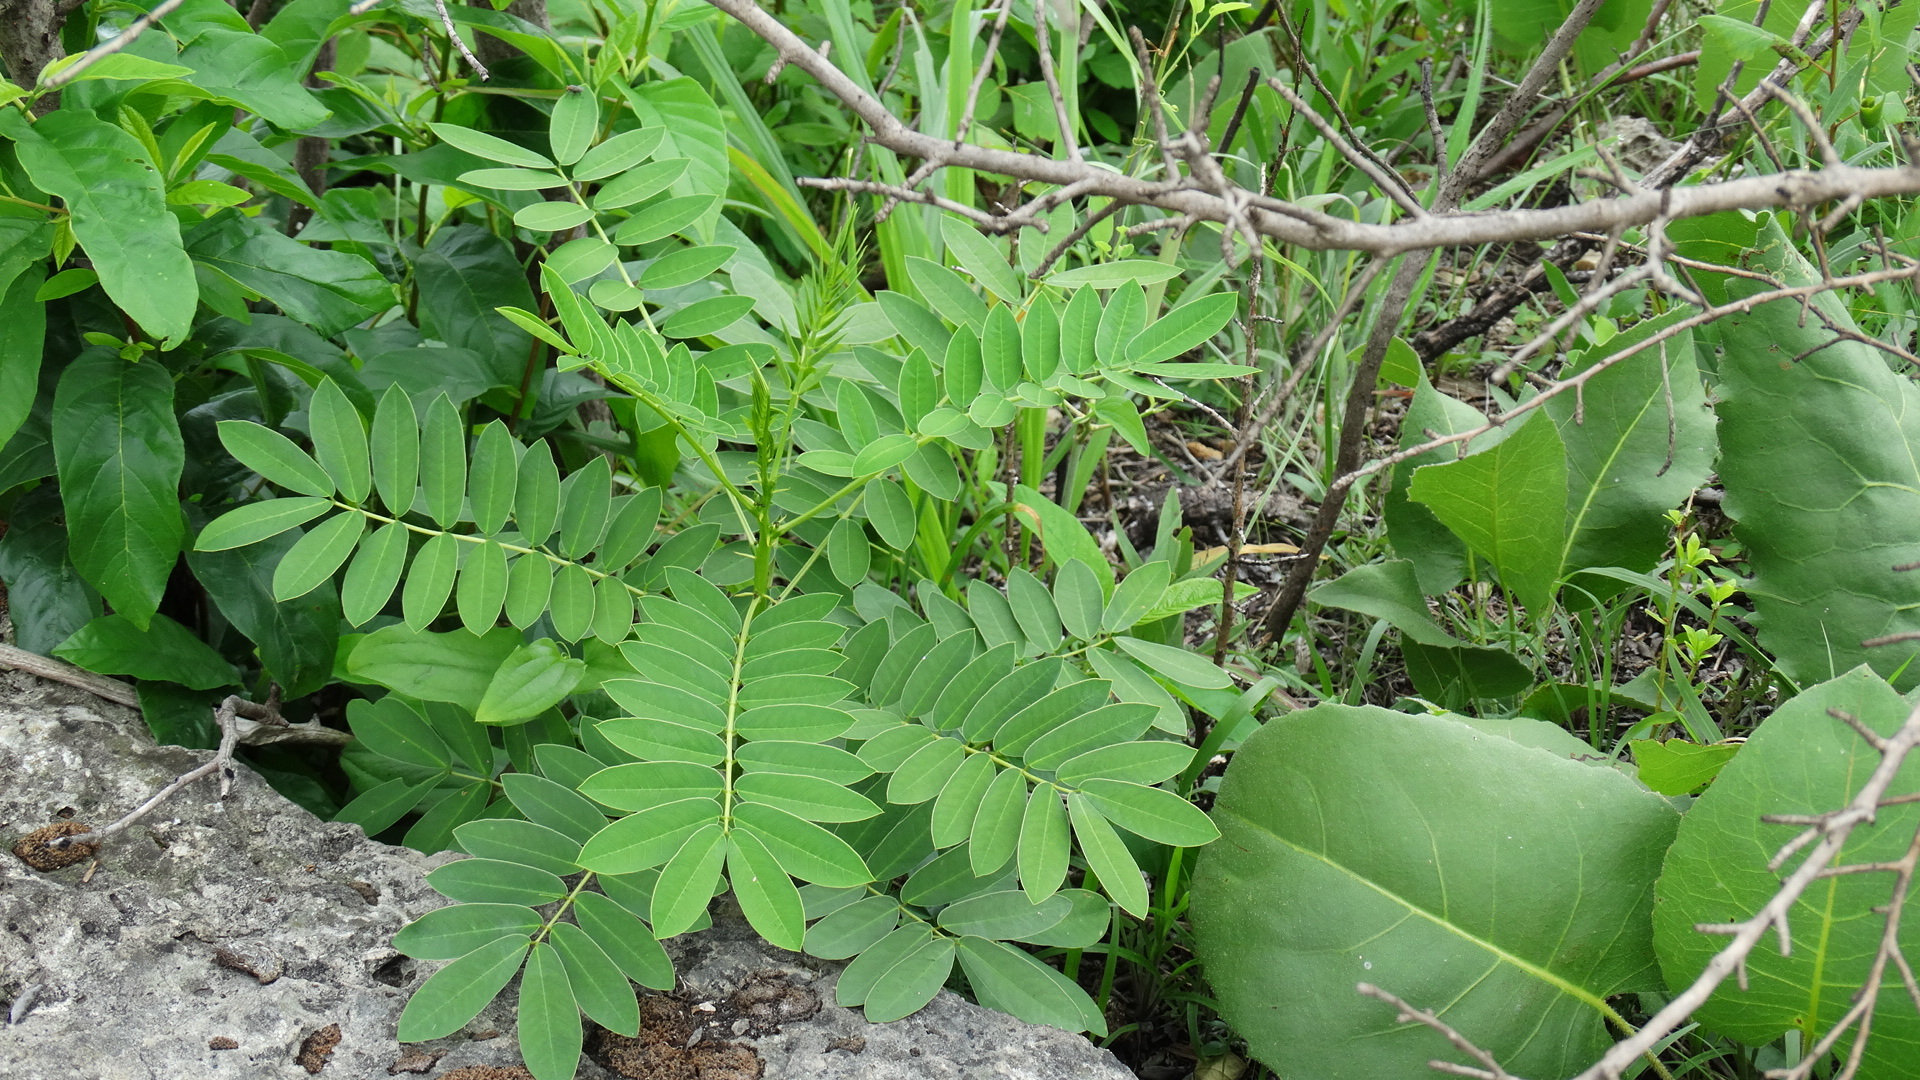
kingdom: Plantae
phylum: Tracheophyta
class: Magnoliopsida
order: Fabales
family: Fabaceae
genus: Senna
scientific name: Senna marilandica
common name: American senna
